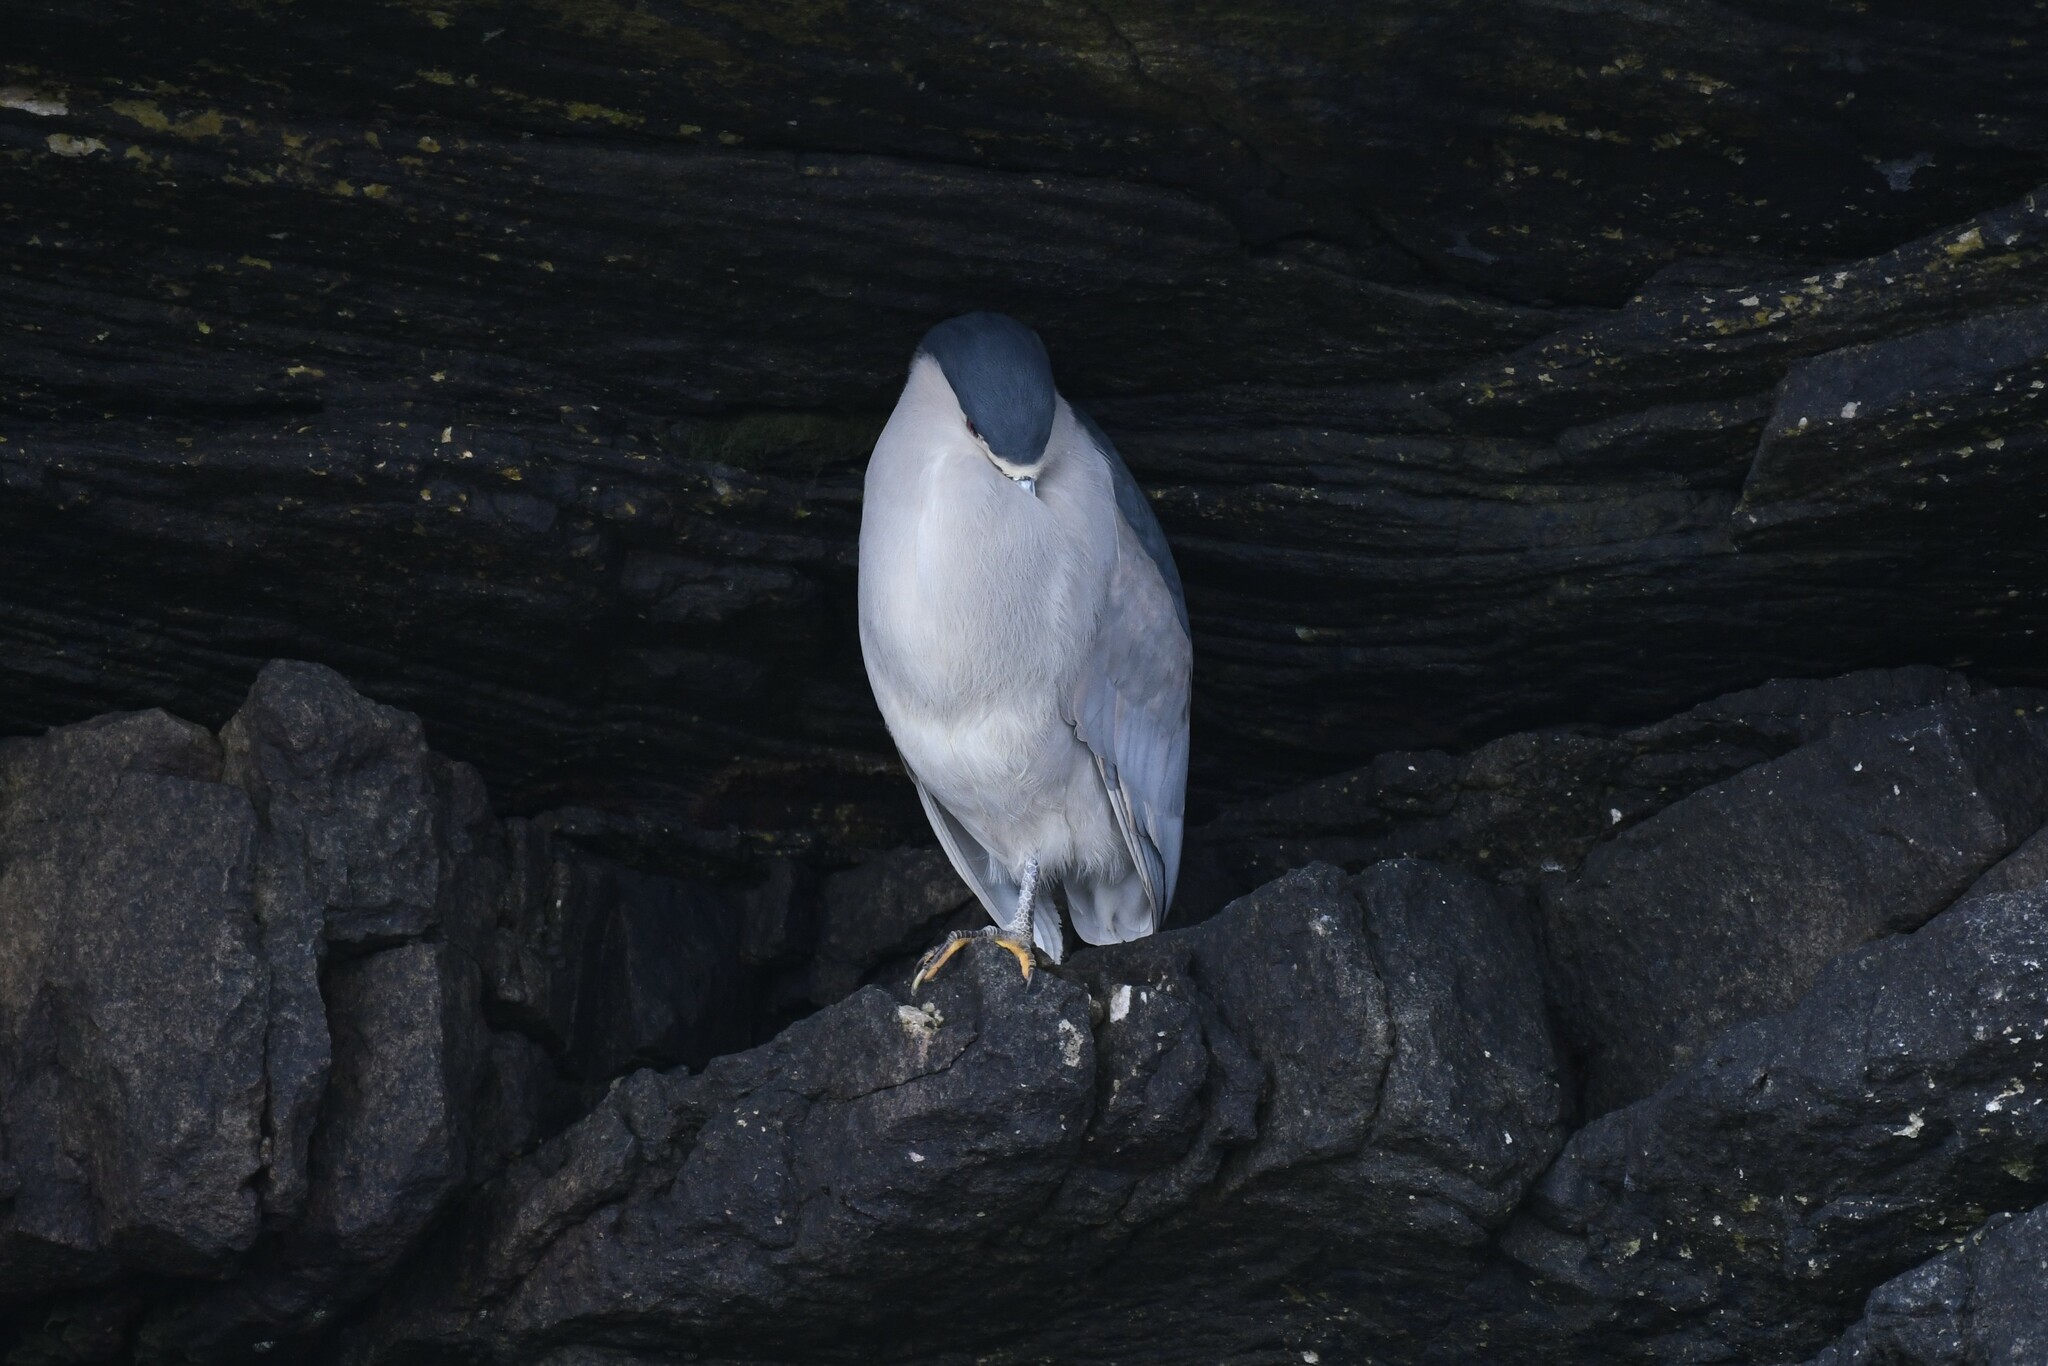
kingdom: Animalia
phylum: Chordata
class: Aves
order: Pelecaniformes
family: Ardeidae
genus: Nycticorax
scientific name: Nycticorax nycticorax
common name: Black-crowned night heron
